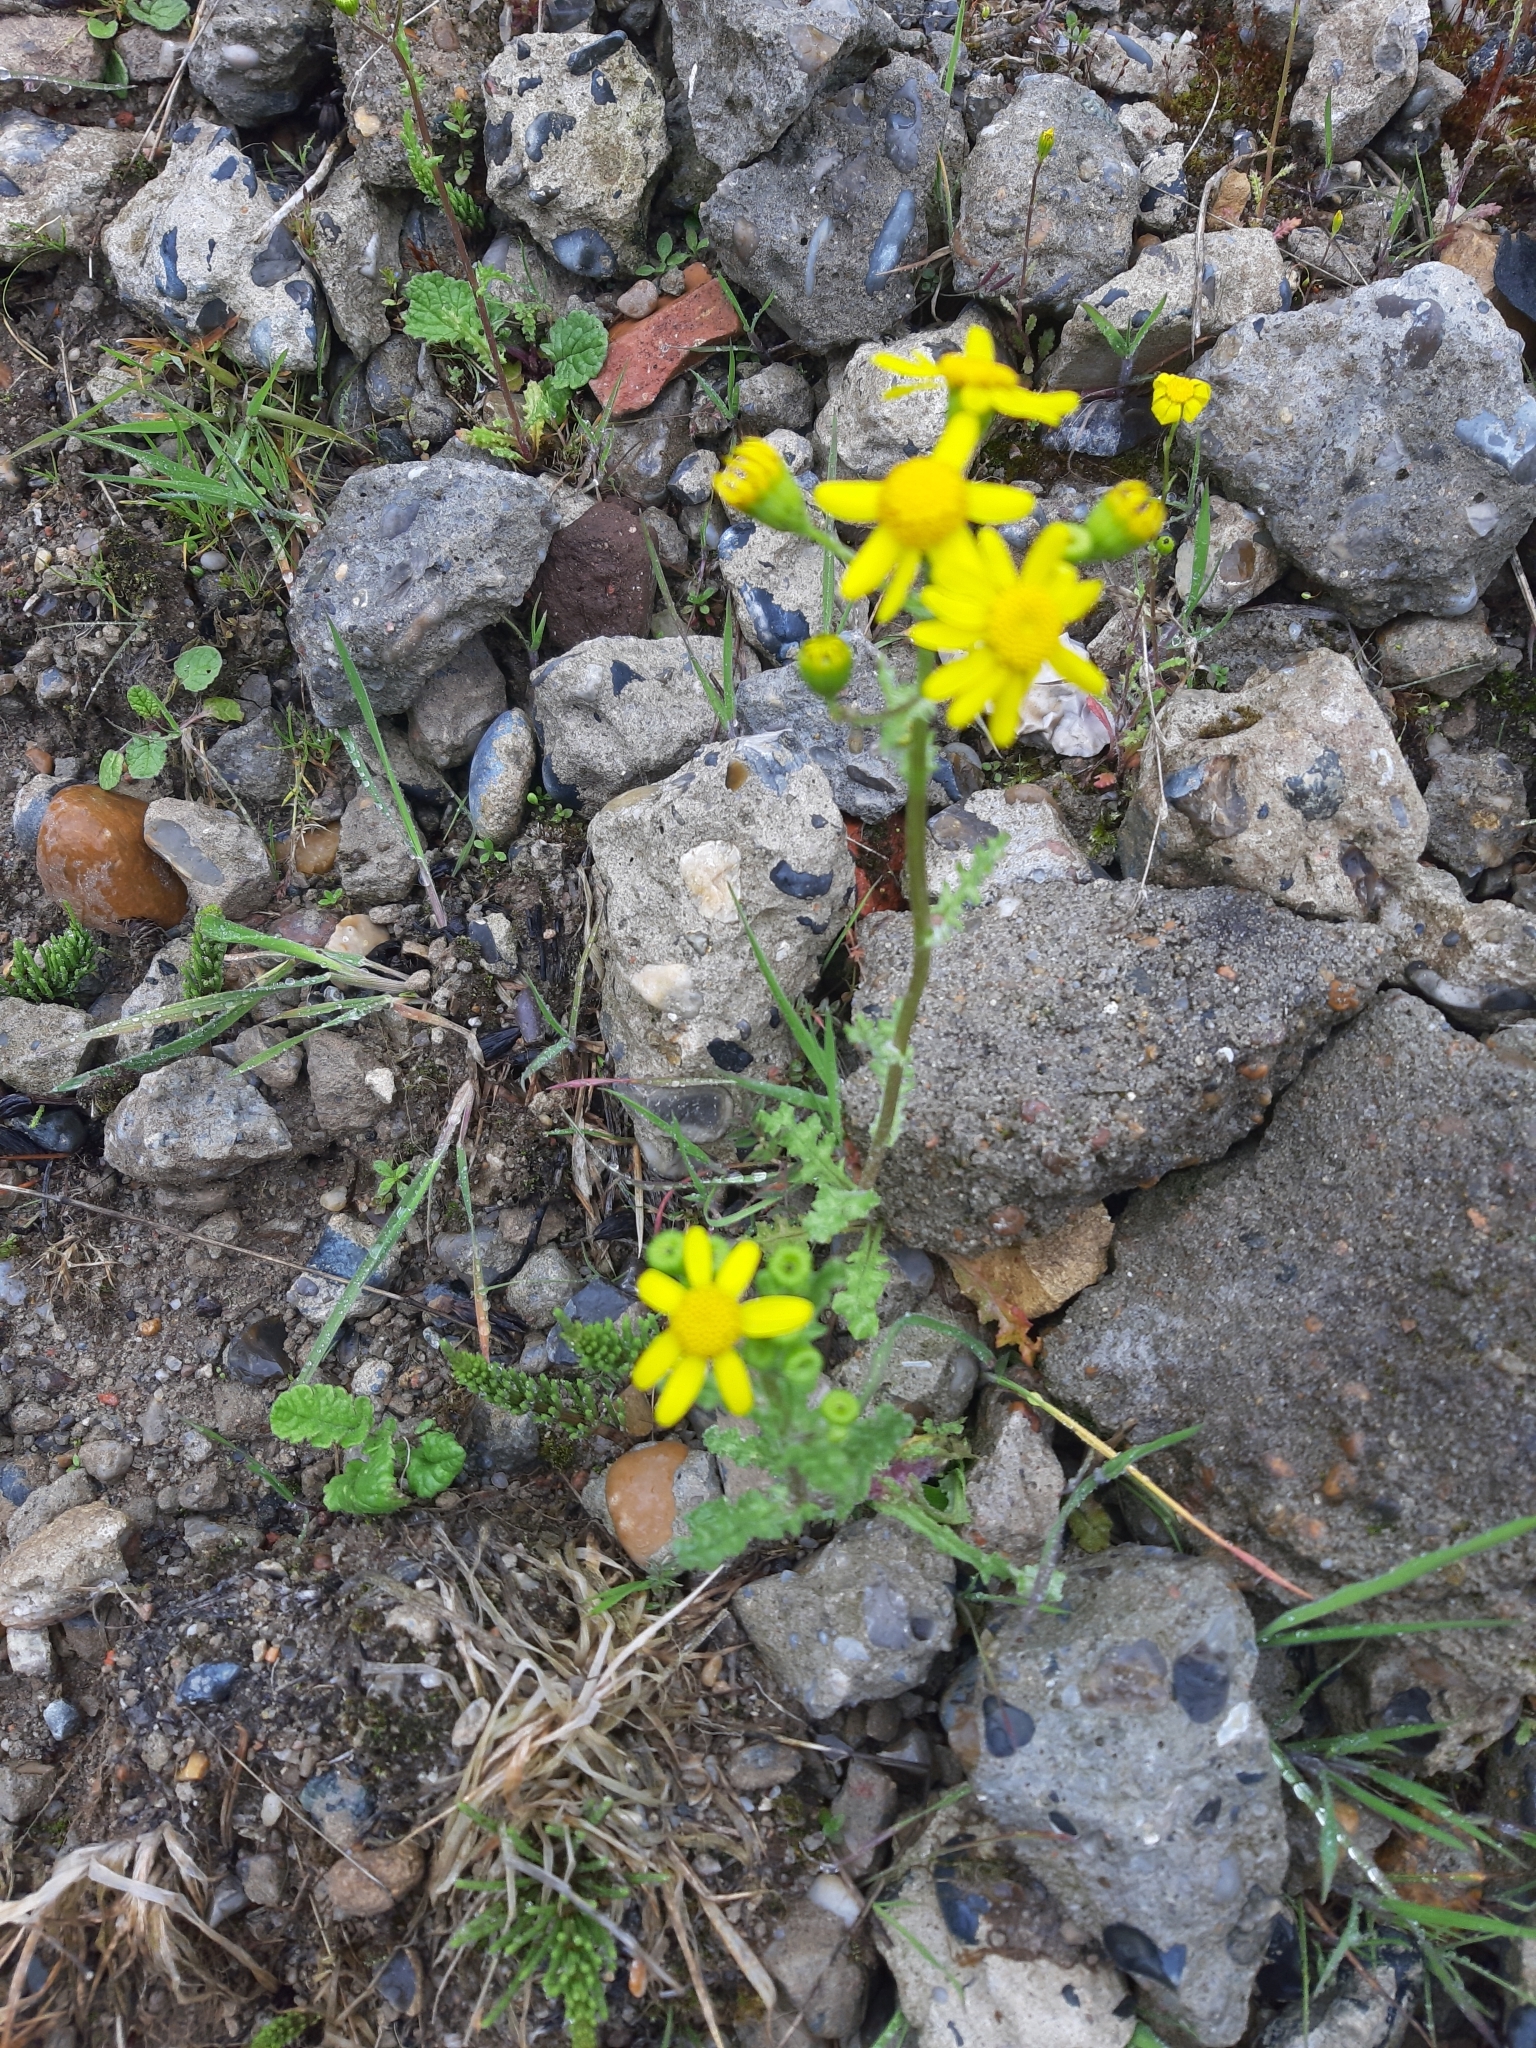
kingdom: Plantae
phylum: Tracheophyta
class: Magnoliopsida
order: Asterales
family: Asteraceae
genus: Senecio
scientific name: Senecio vernalis
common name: Eastern groundsel
